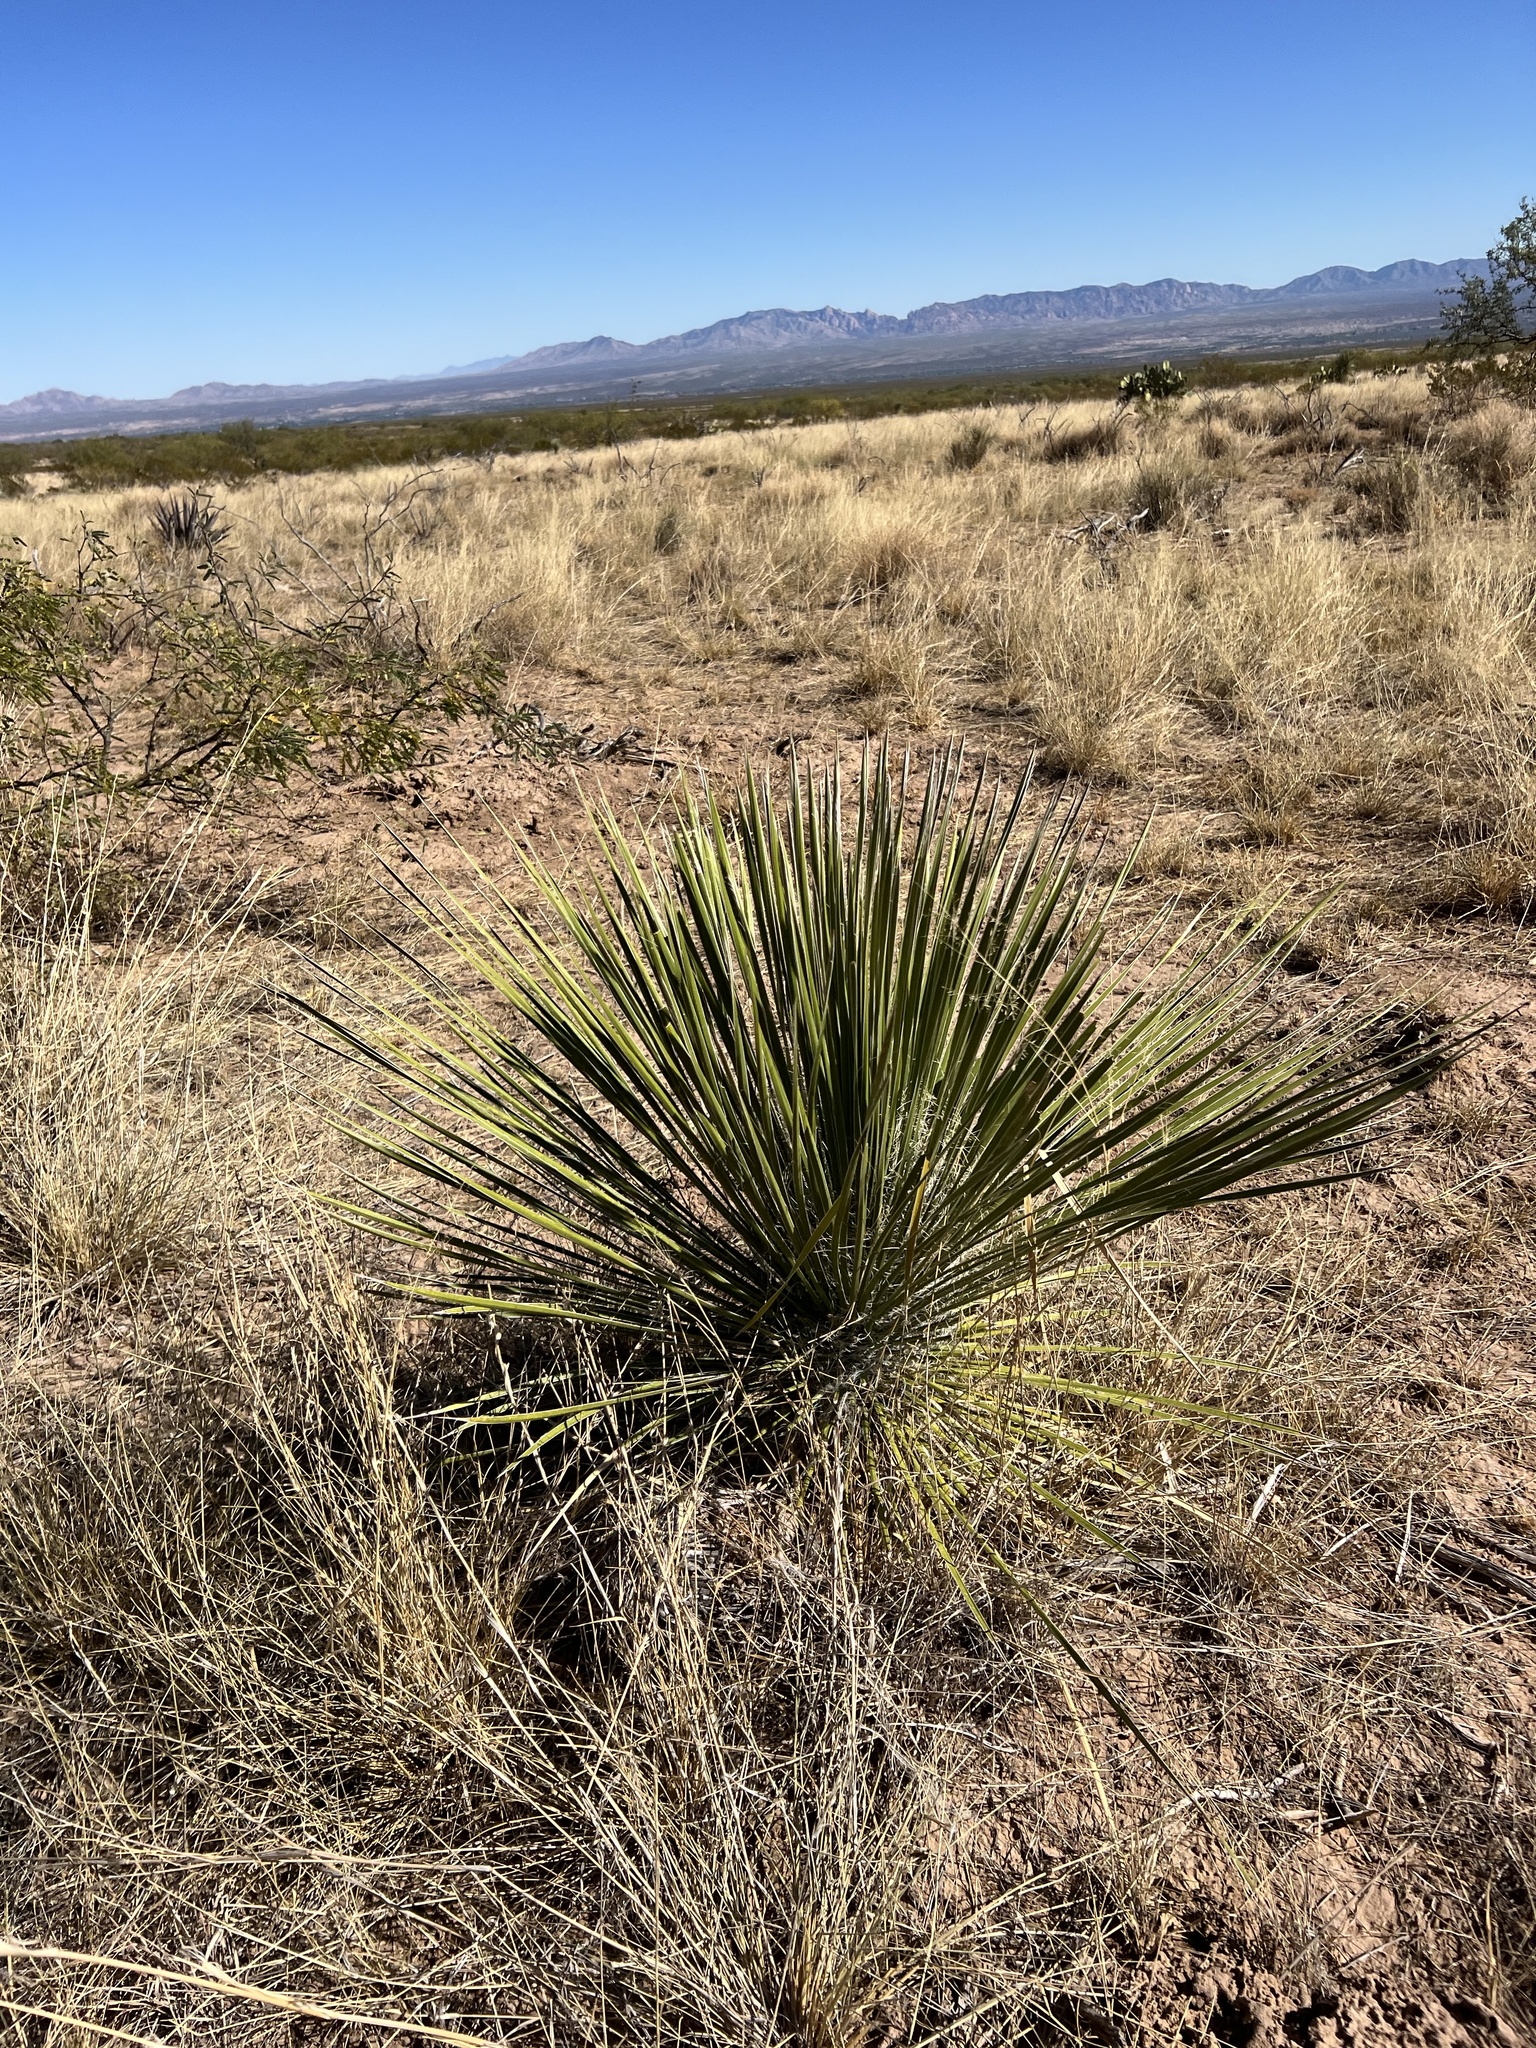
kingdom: Plantae
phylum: Tracheophyta
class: Liliopsida
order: Asparagales
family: Asparagaceae
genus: Yucca
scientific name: Yucca elata
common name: Palmella
